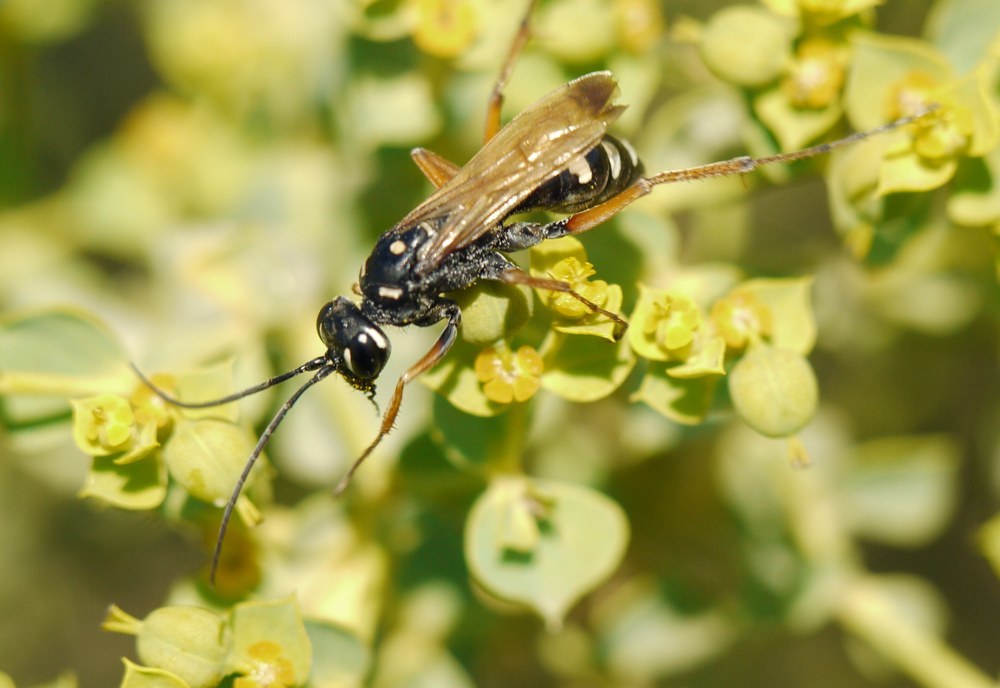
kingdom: Animalia
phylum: Arthropoda
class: Insecta
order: Hymenoptera
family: Pompilidae
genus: Cryptocheilus
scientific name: Cryptocheilus variabilis
